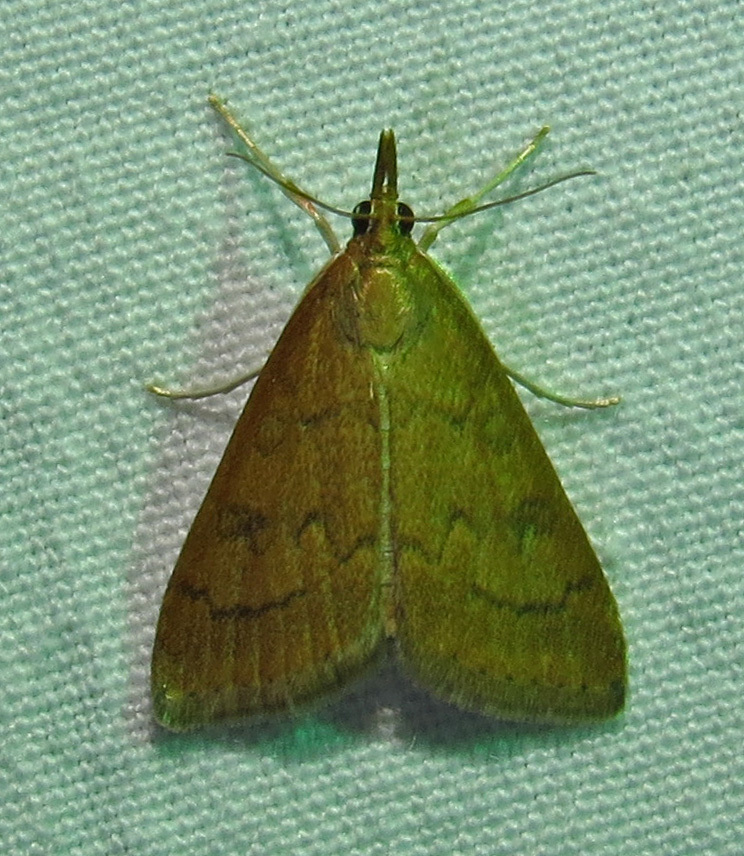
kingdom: Animalia
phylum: Arthropoda
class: Insecta
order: Lepidoptera
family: Crambidae
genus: Udea
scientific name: Udea rubigalis
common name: Celery leaftier moth
